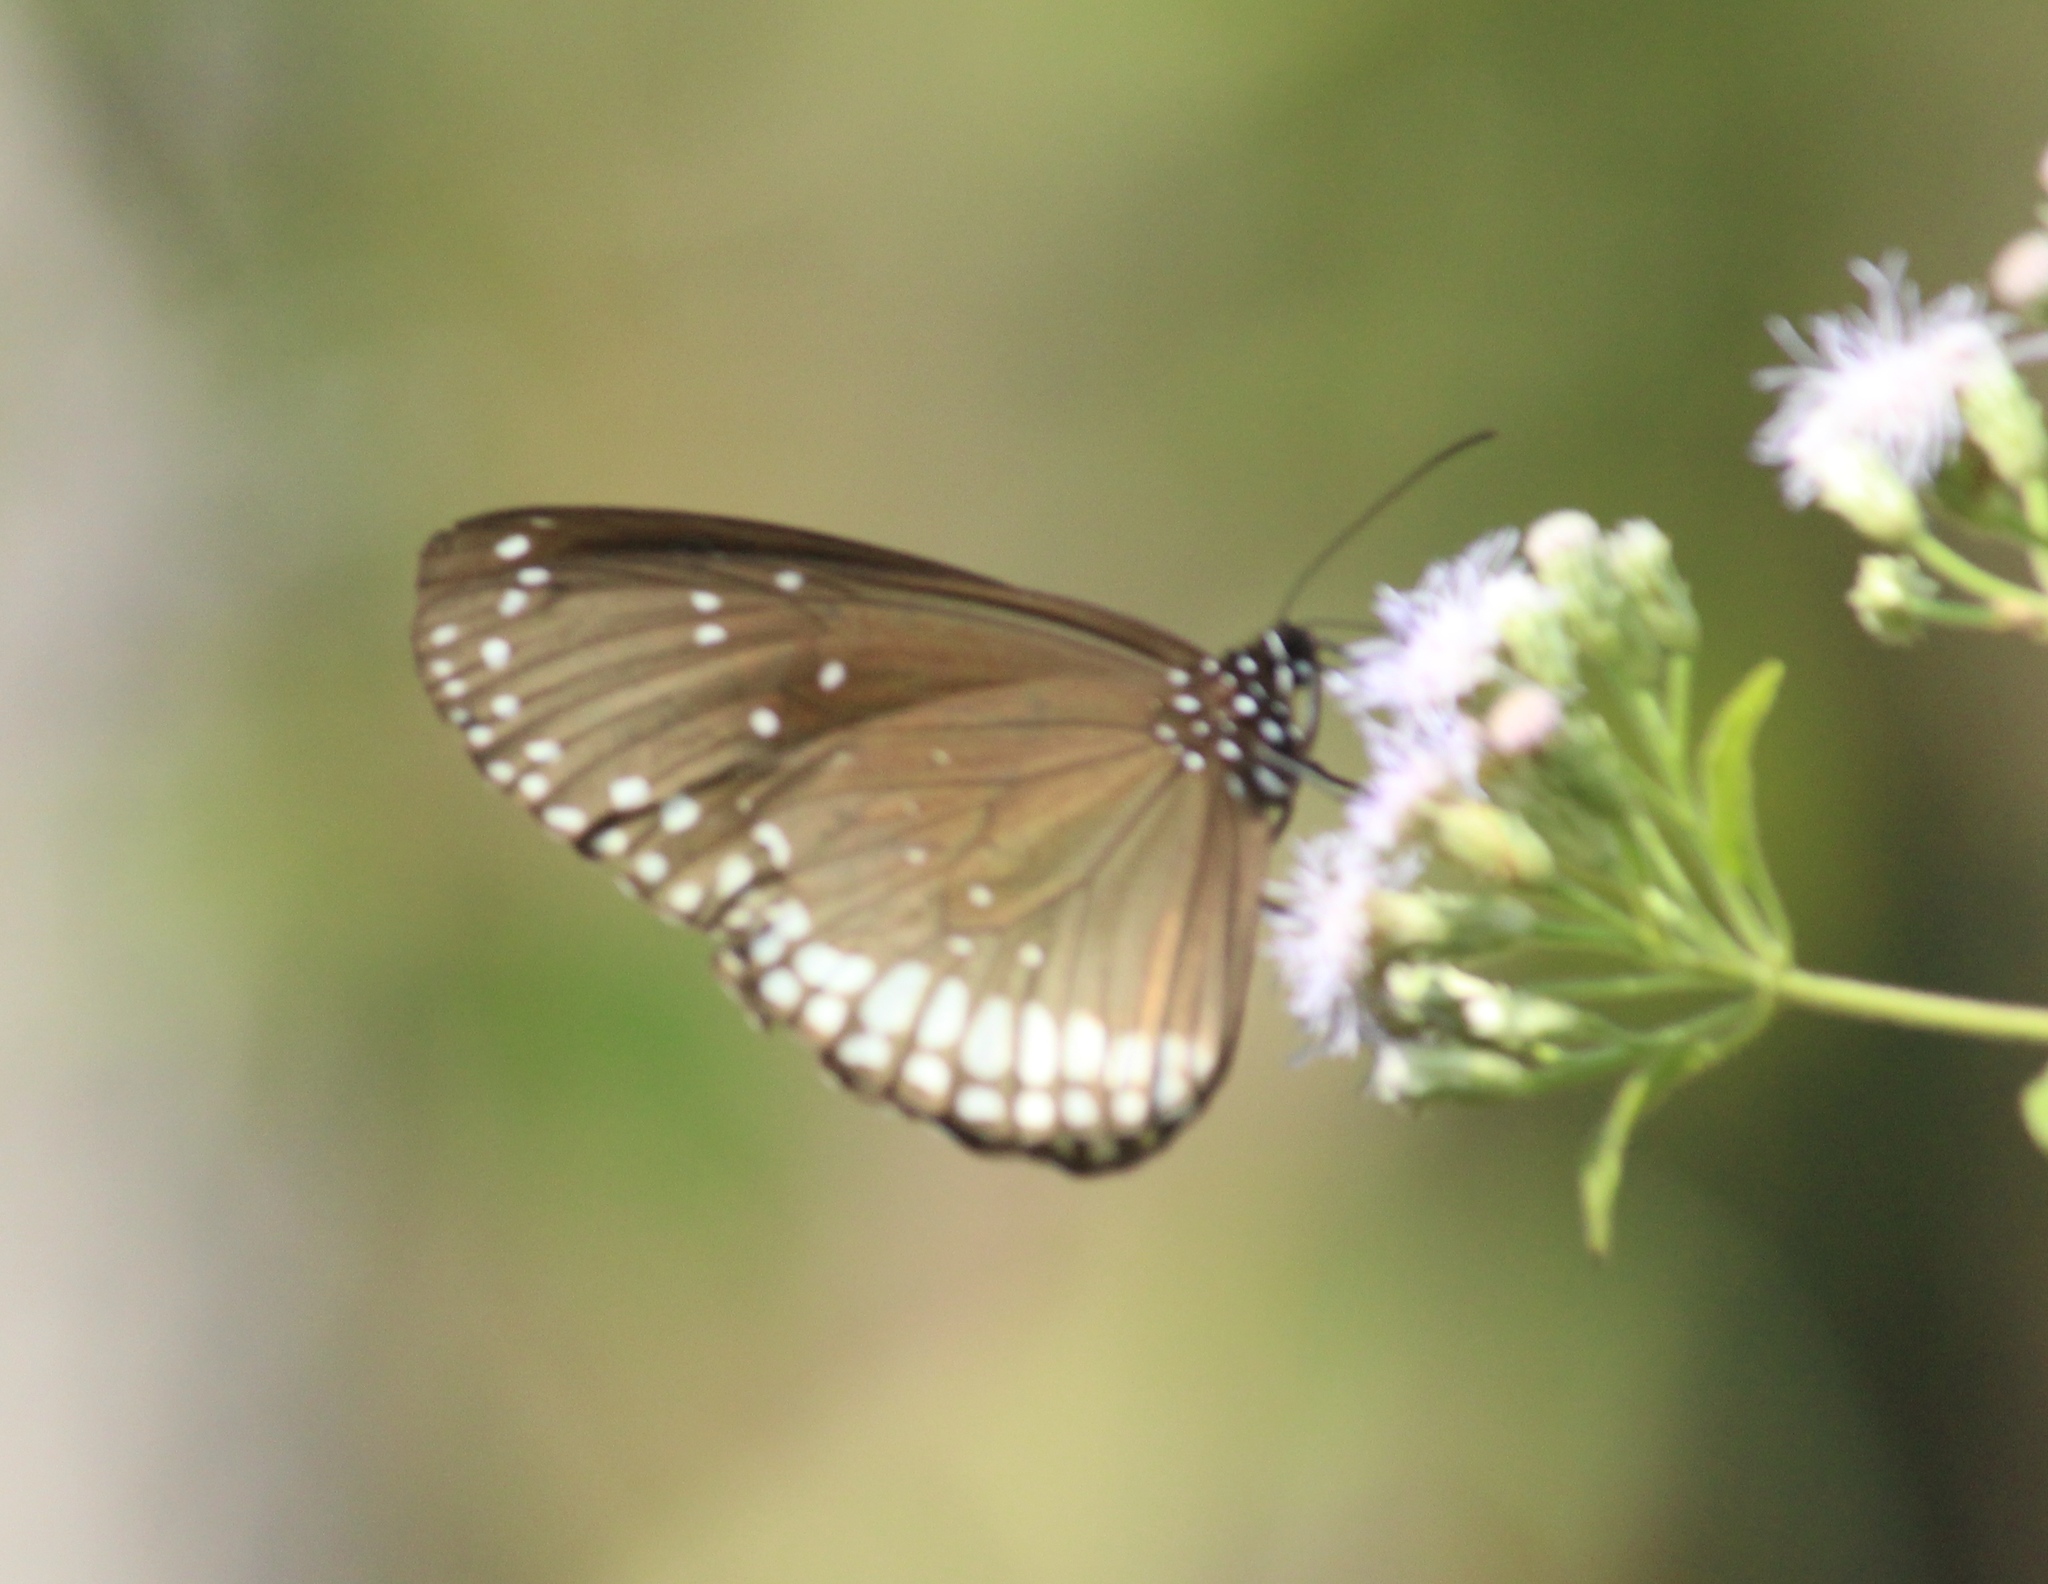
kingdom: Animalia
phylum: Arthropoda
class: Insecta
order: Lepidoptera
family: Nymphalidae
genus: Euploea
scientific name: Euploea sylvester
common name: Double-branded crow butterfly
